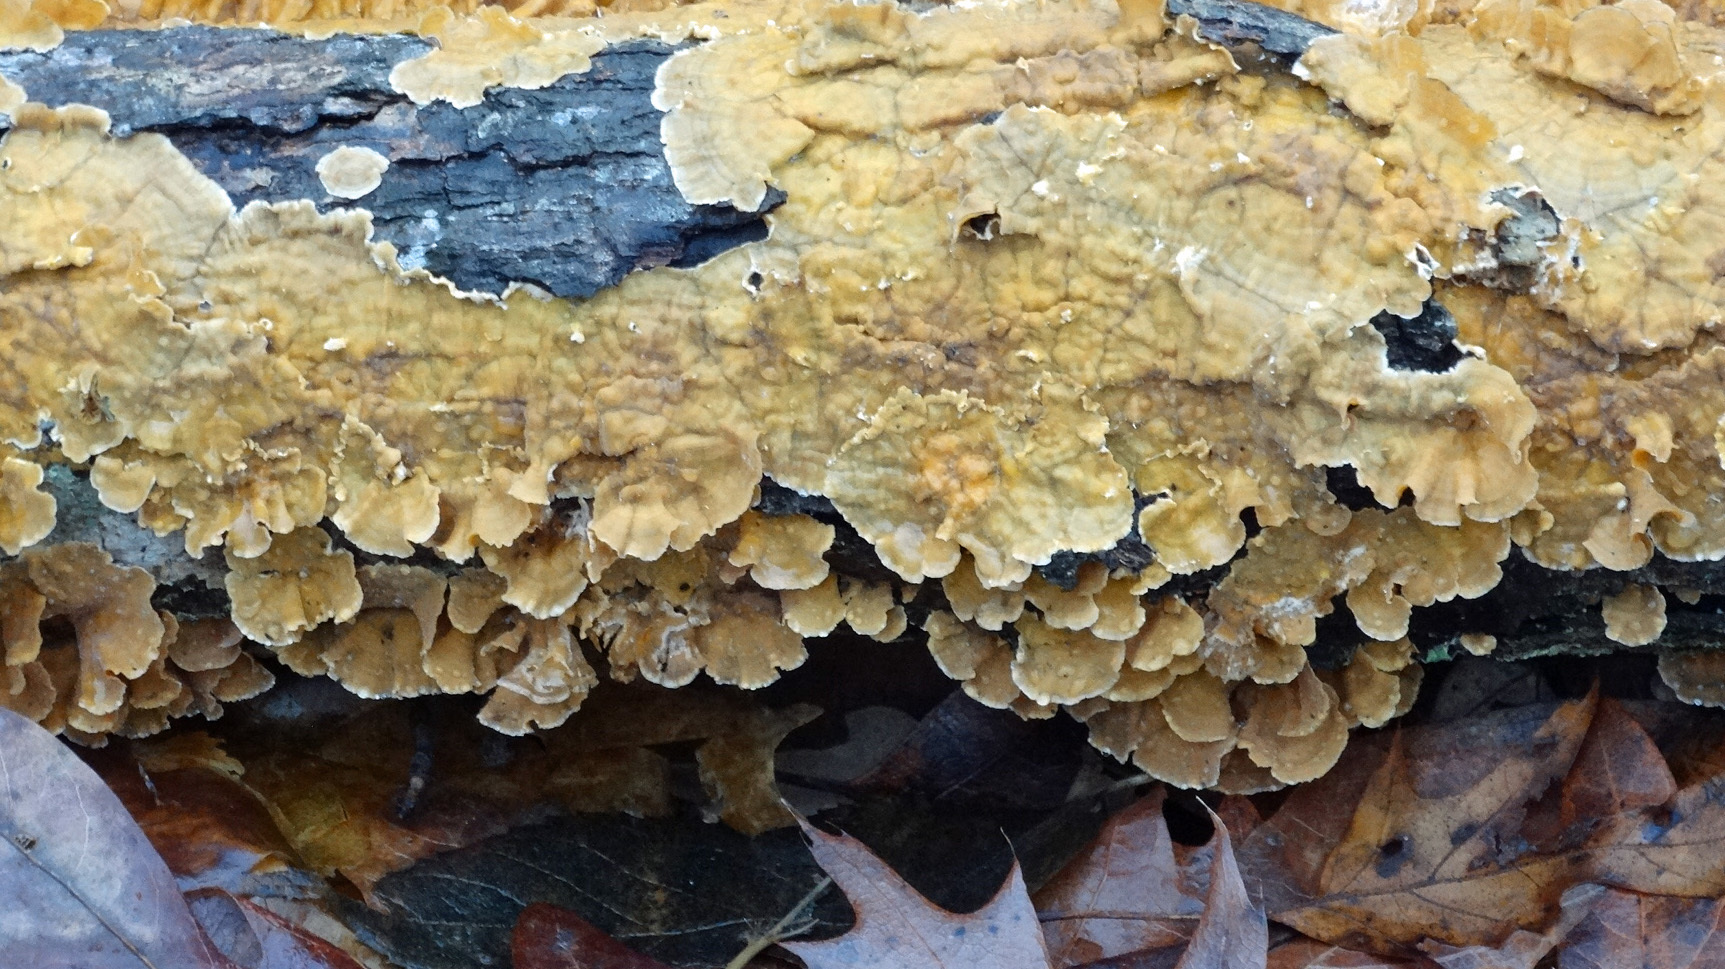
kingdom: Fungi
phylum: Basidiomycota
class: Agaricomycetes
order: Russulales
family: Stereaceae
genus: Stereum
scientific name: Stereum complicatum
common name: Crowded parchment
